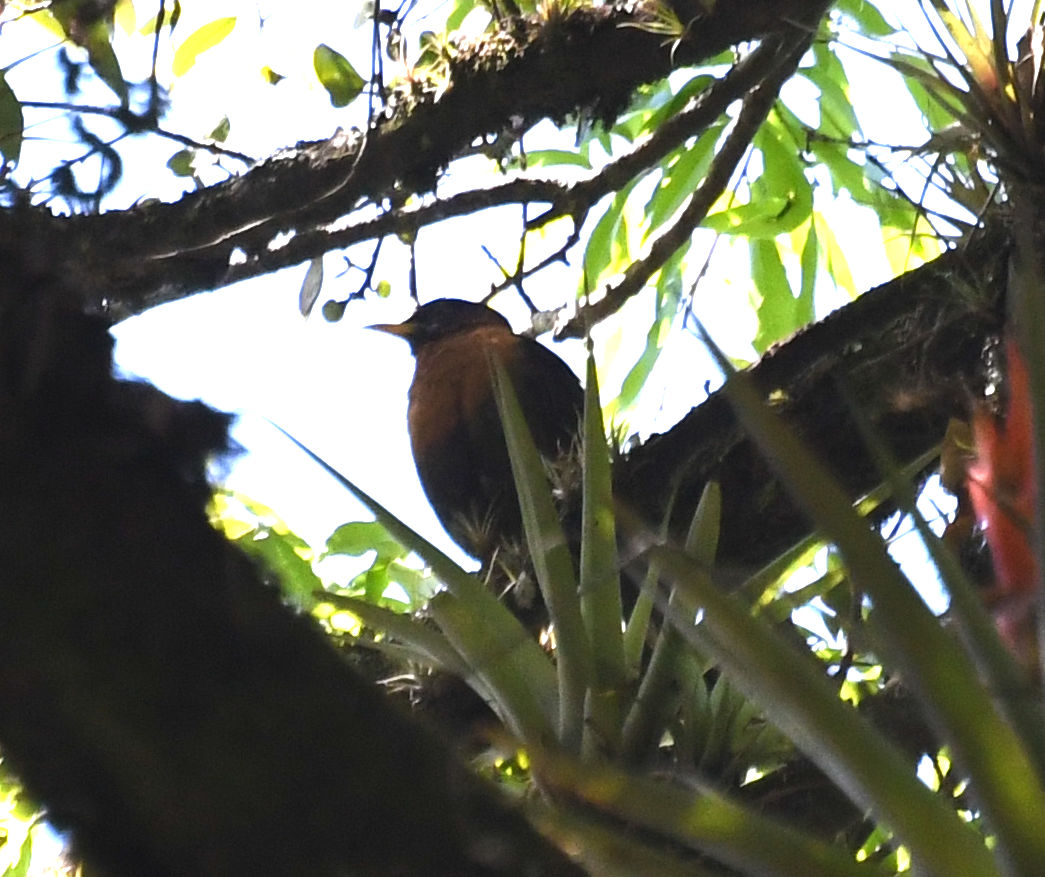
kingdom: Animalia
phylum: Chordata
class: Aves
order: Passeriformes
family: Turdidae
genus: Turdus
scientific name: Turdus rufitorques
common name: Rufous-collared thrush
